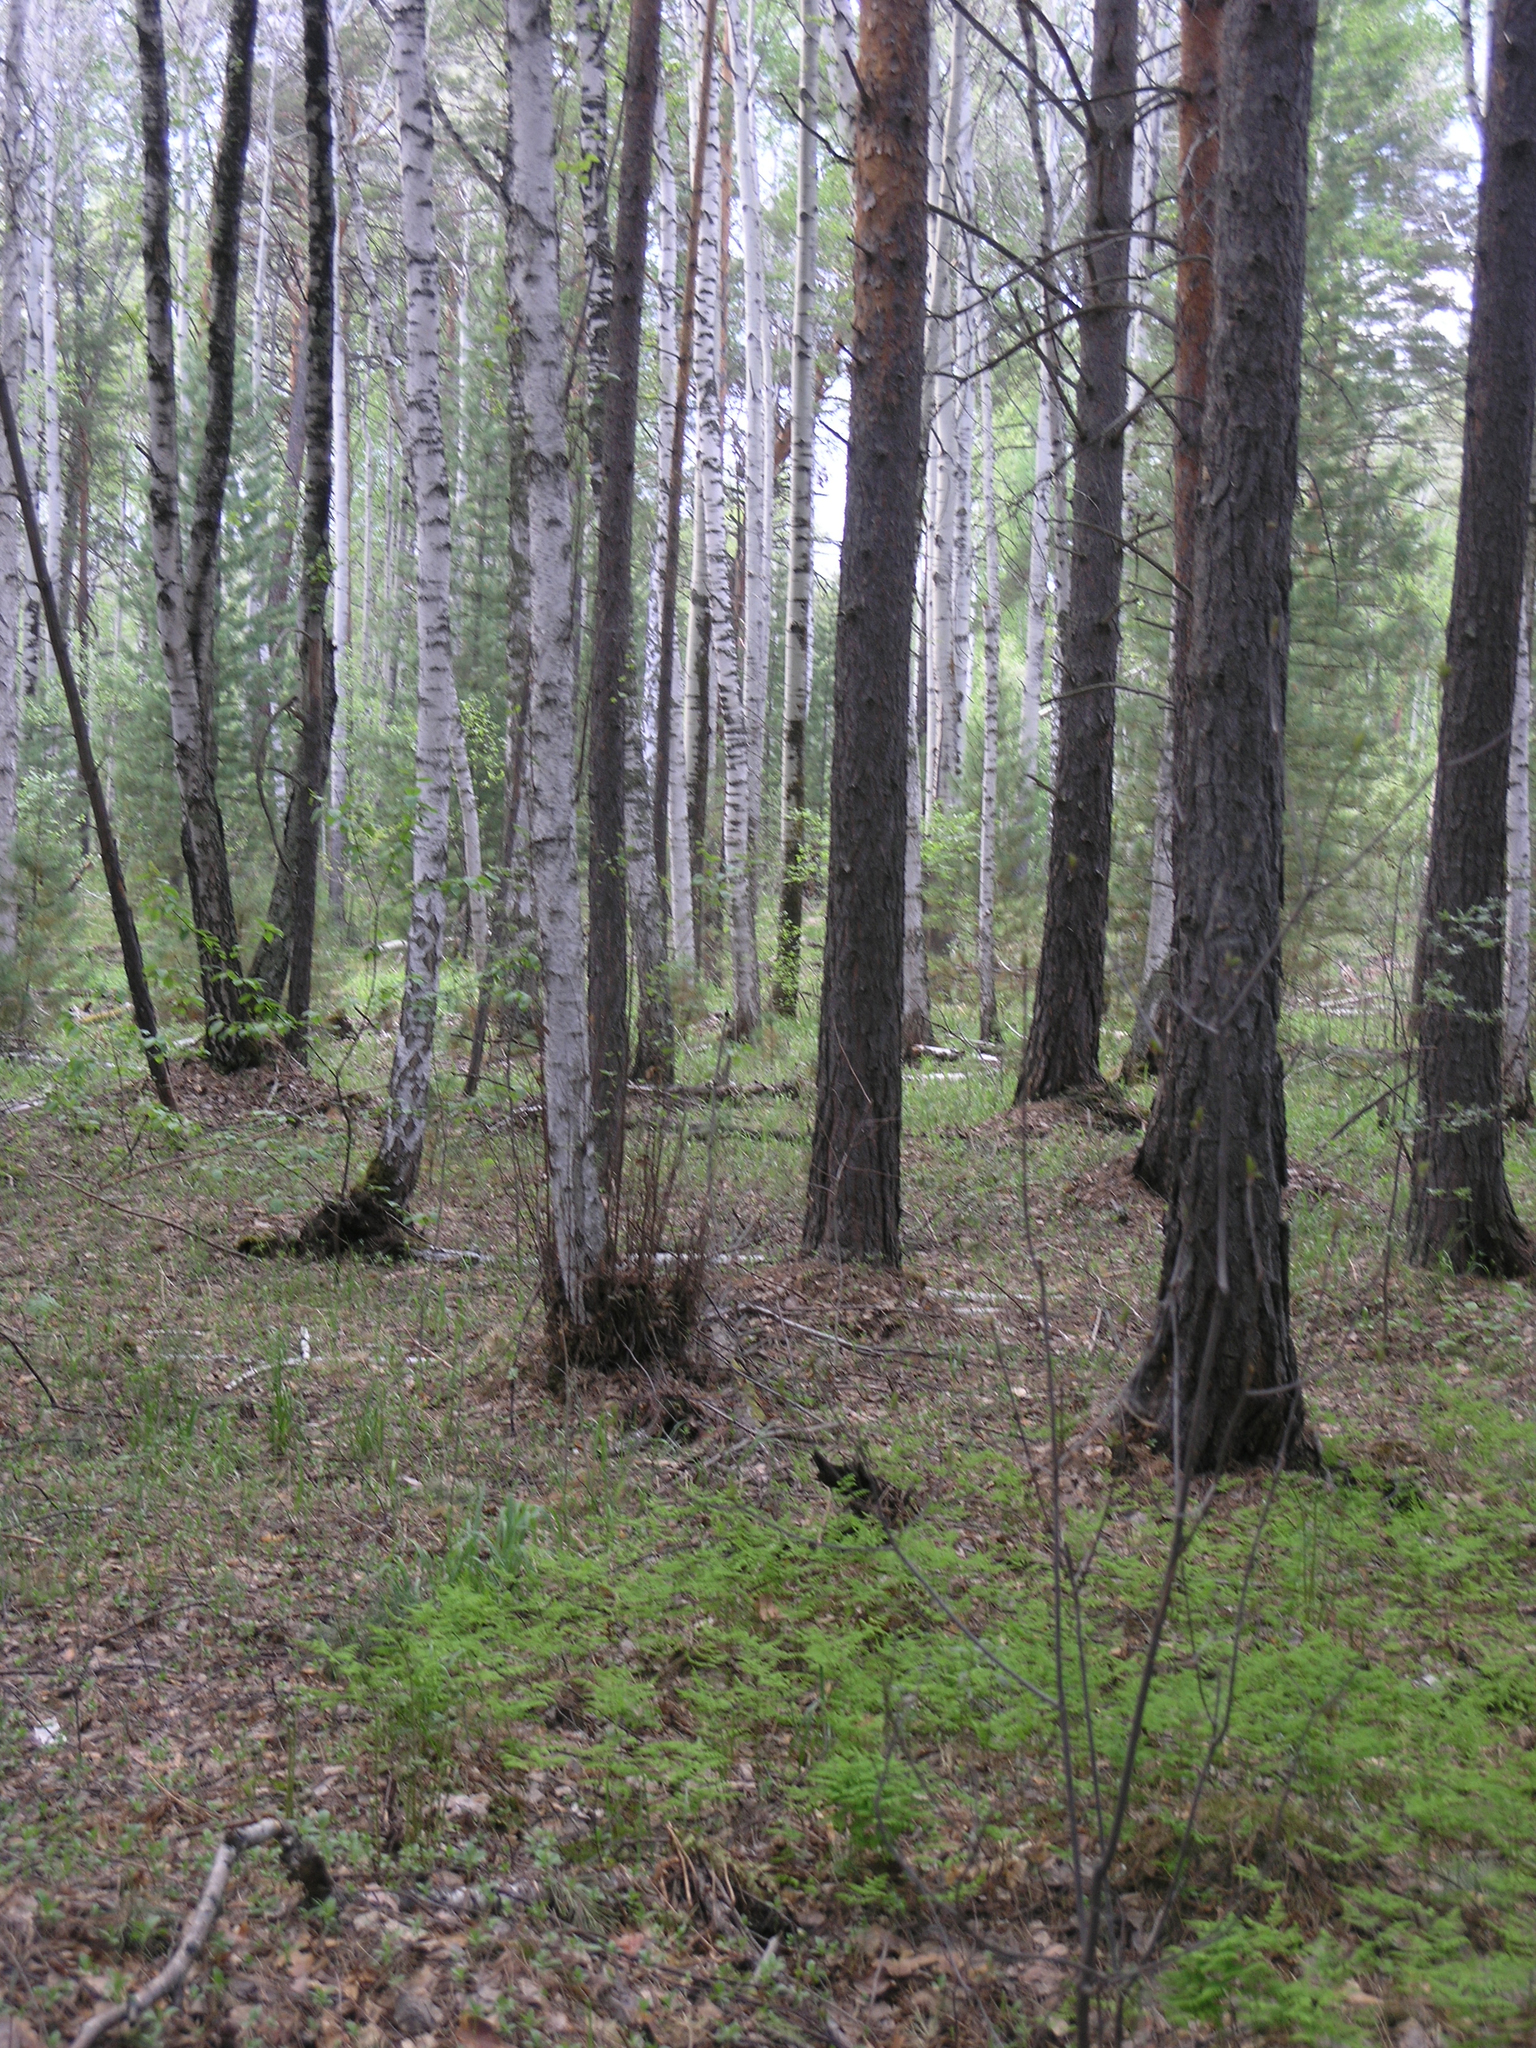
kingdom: Plantae
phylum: Tracheophyta
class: Polypodiopsida
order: Polypodiales
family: Cystopteridaceae
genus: Gymnocarpium
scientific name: Gymnocarpium dryopteris
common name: Oak fern
